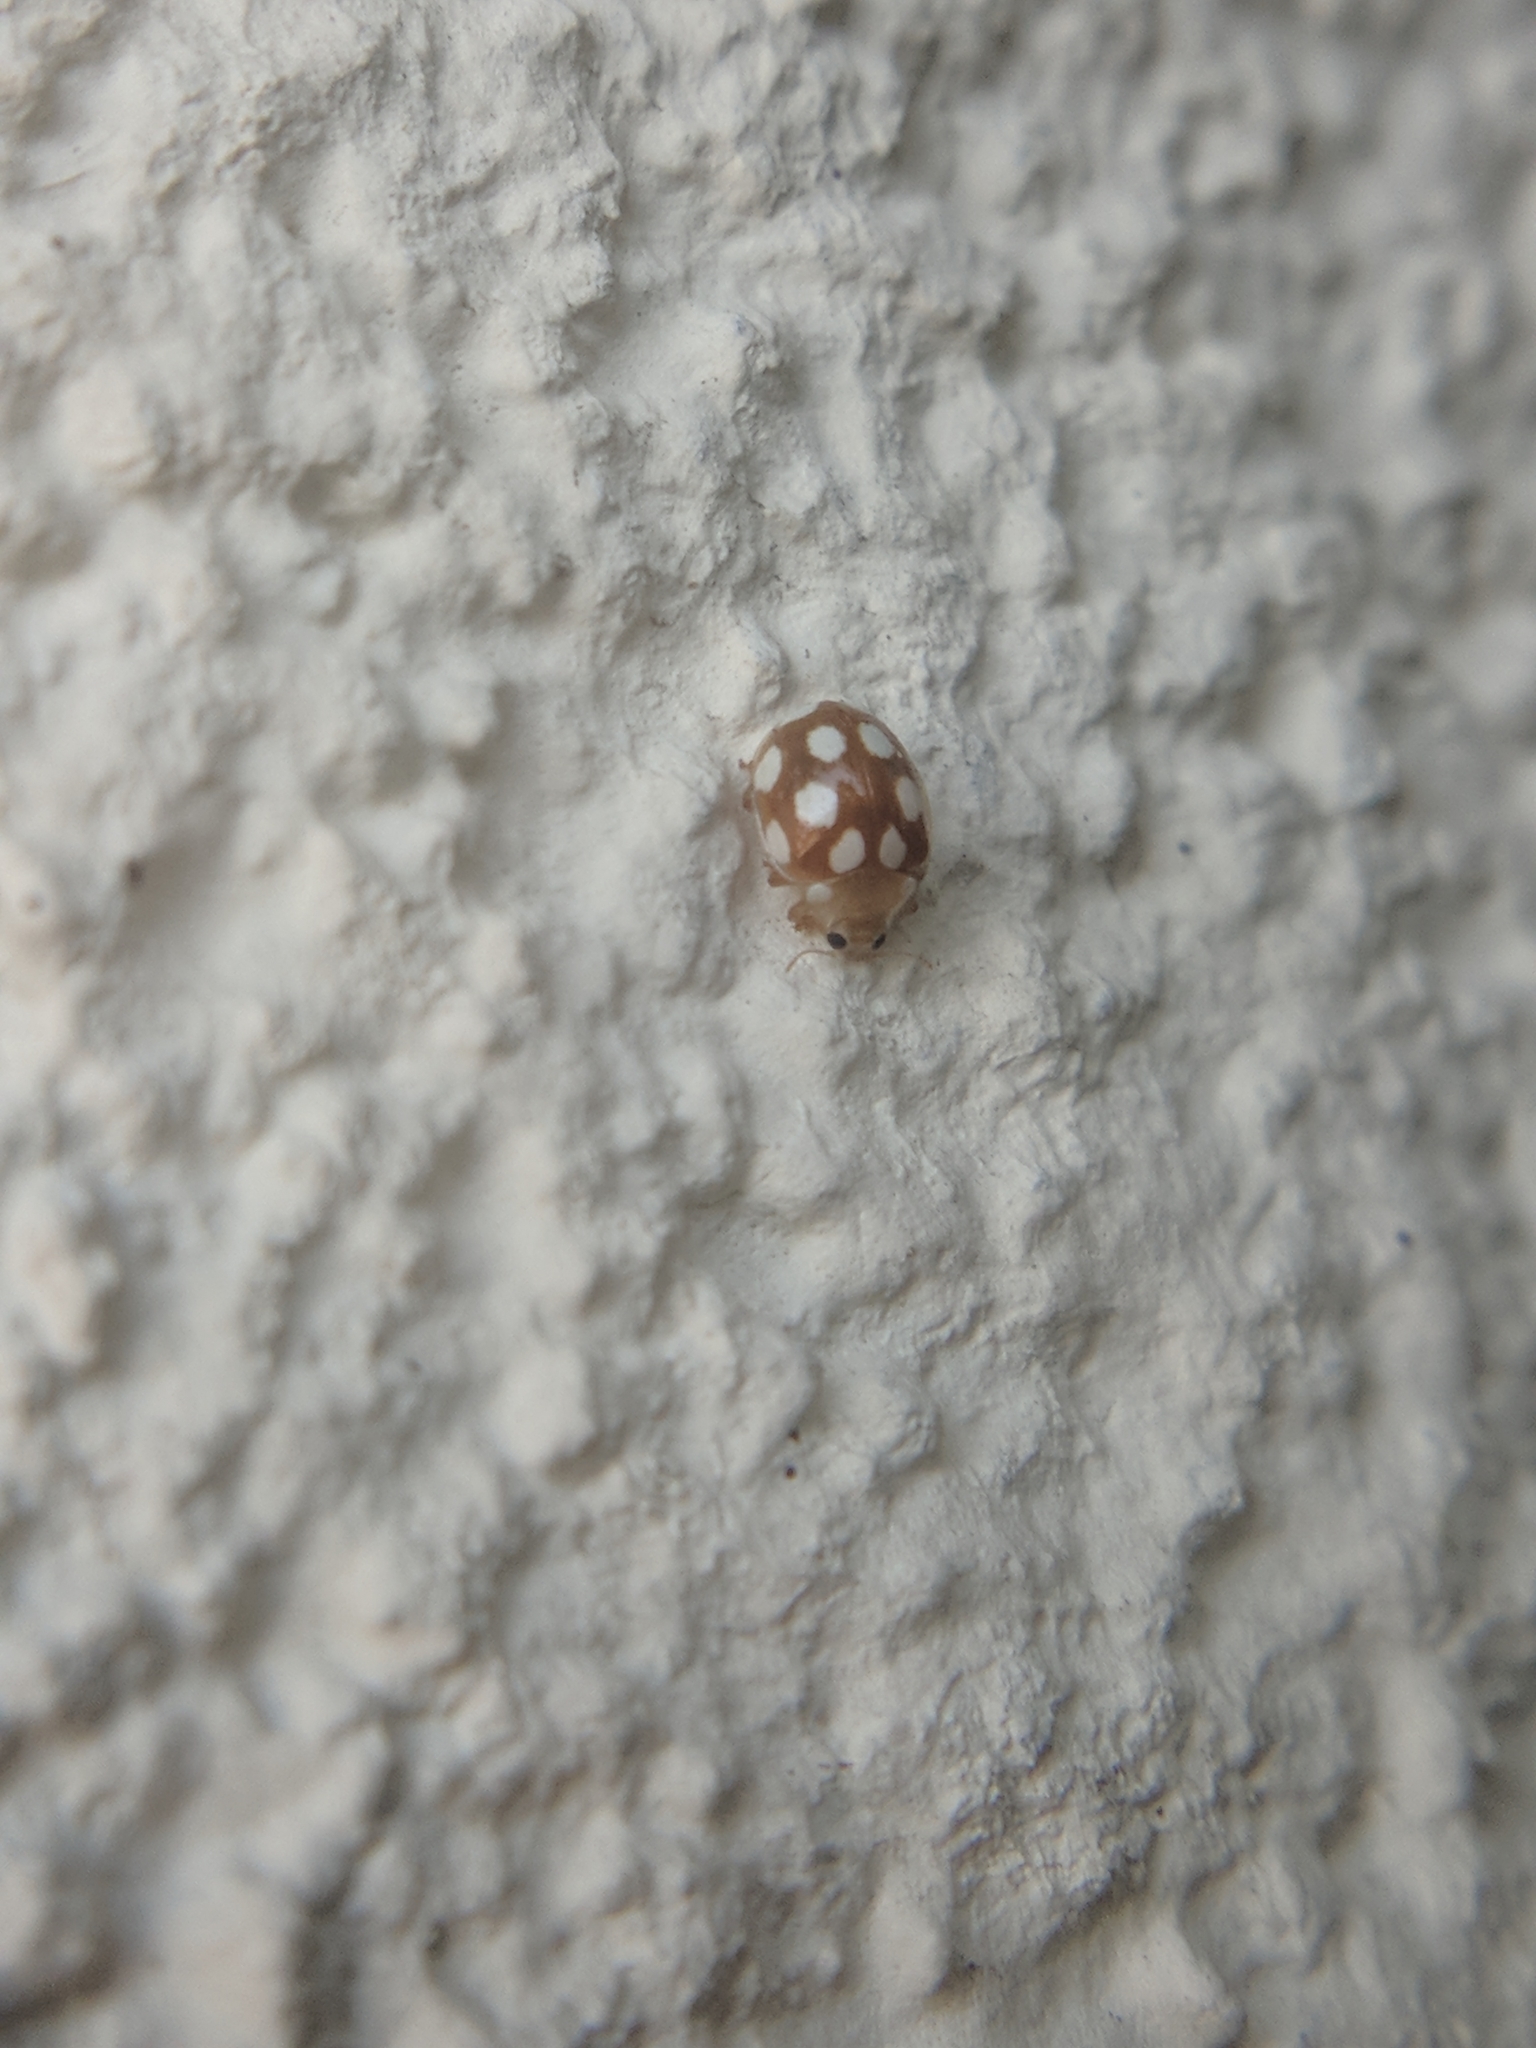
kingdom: Animalia
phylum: Arthropoda
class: Insecta
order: Coleoptera
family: Coccinellidae
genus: Vibidia
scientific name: Vibidia duodecimguttata
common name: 12-spot ladybird
